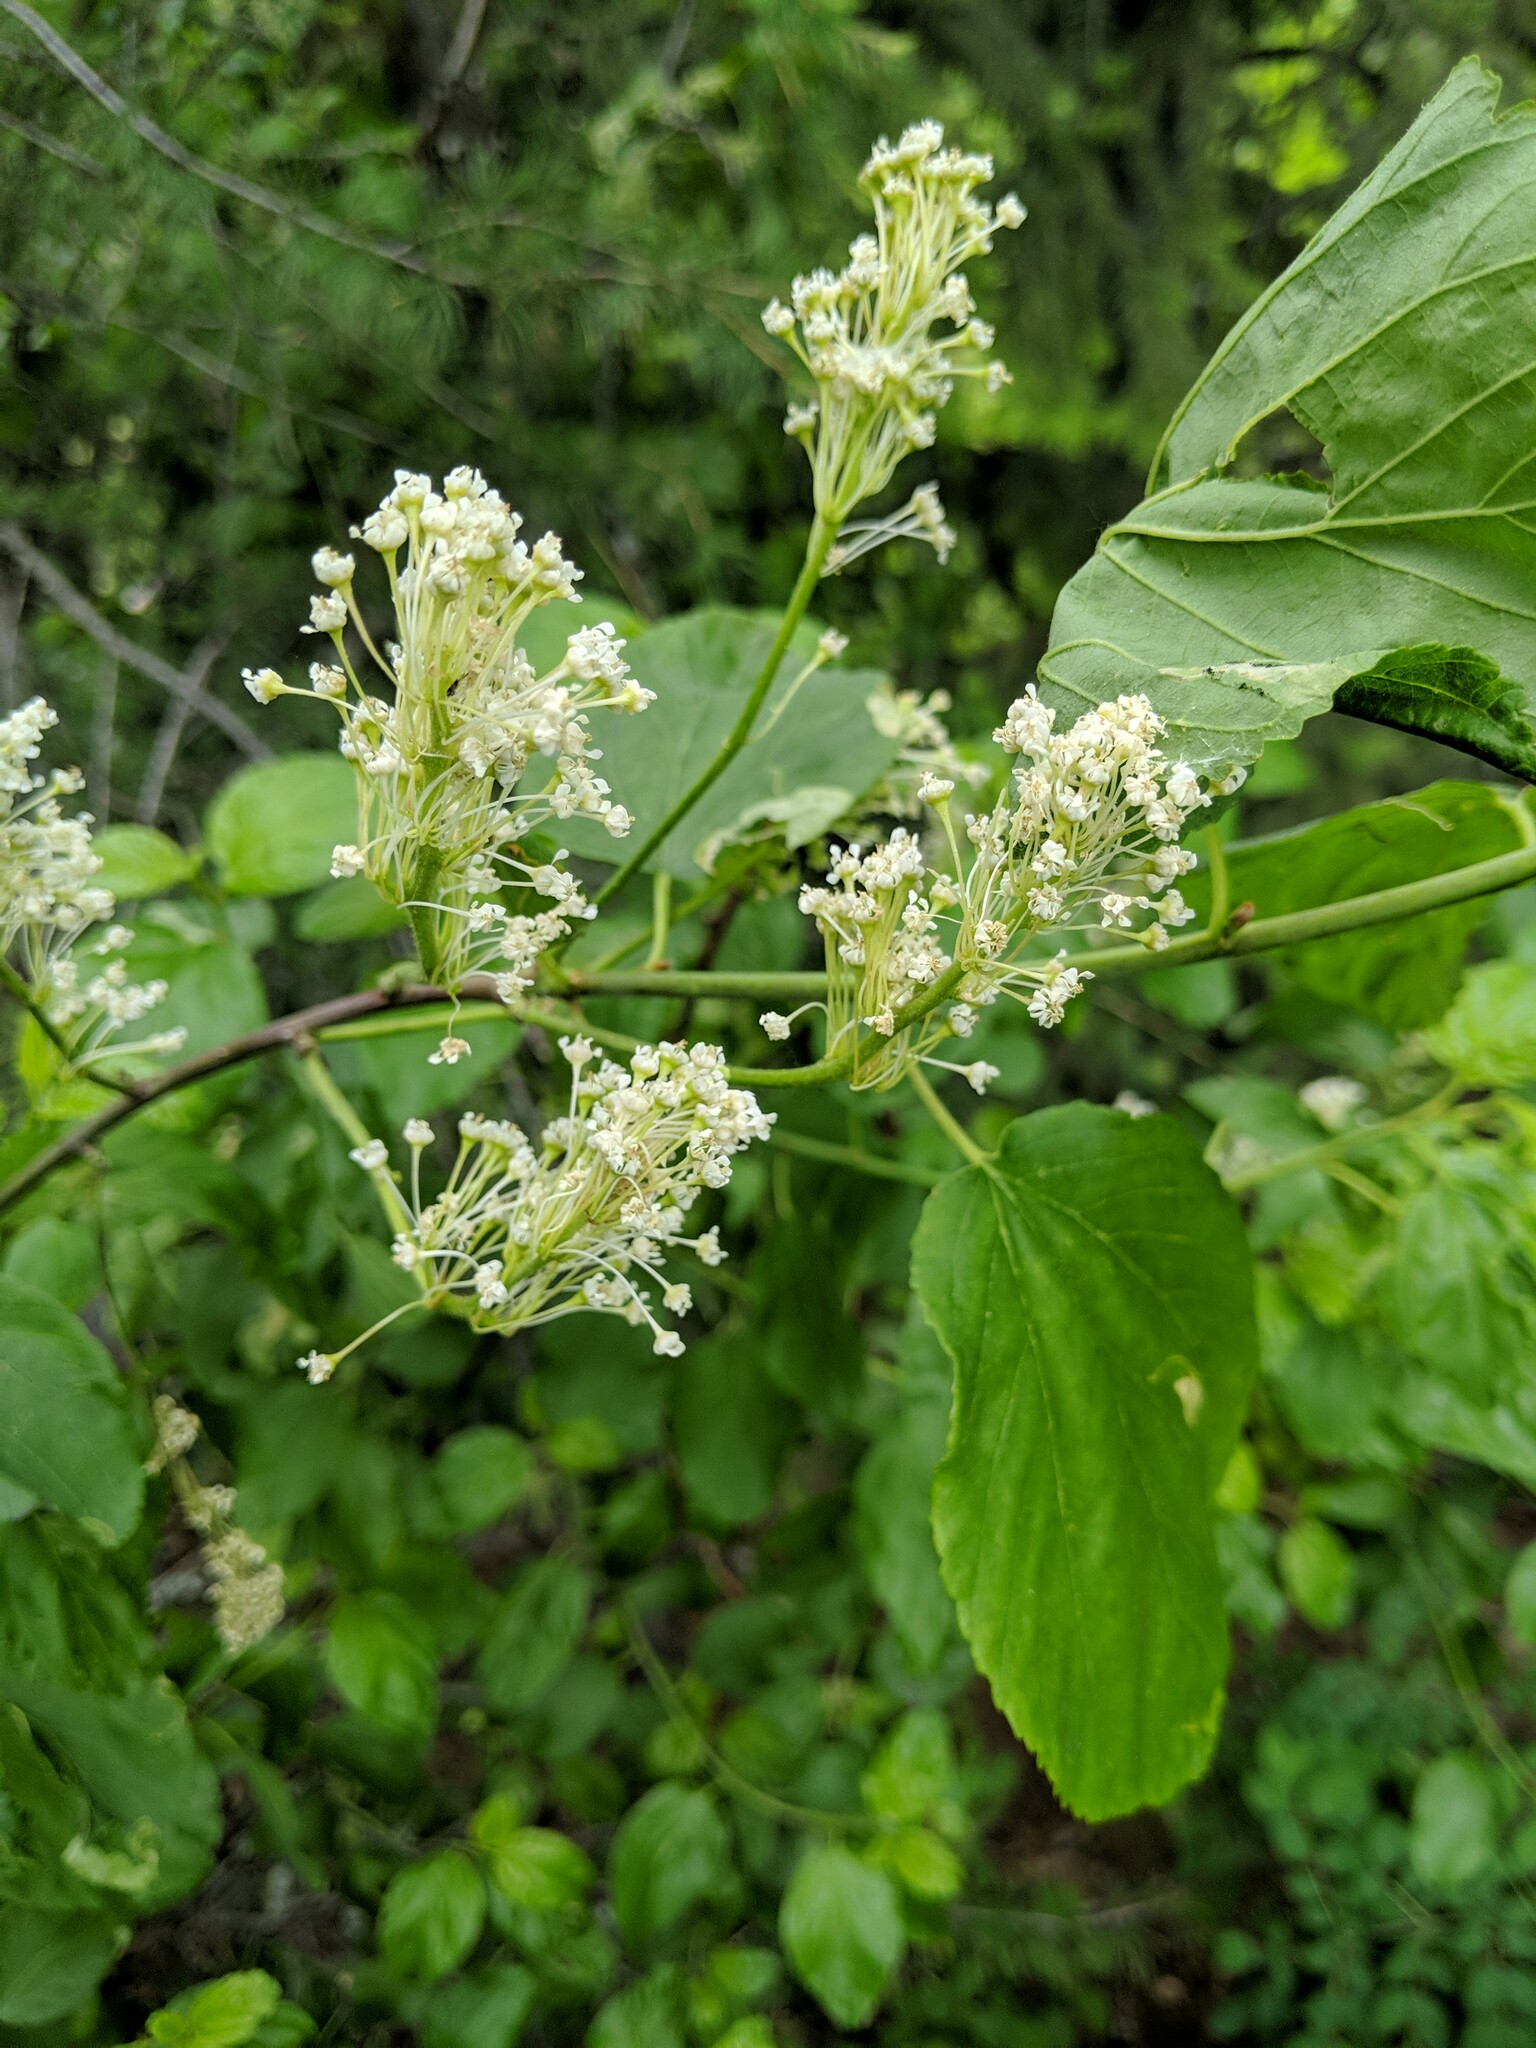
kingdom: Plantae
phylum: Tracheophyta
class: Magnoliopsida
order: Rosales
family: Rhamnaceae
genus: Ceanothus
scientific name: Ceanothus sanguineus
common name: Teatree
